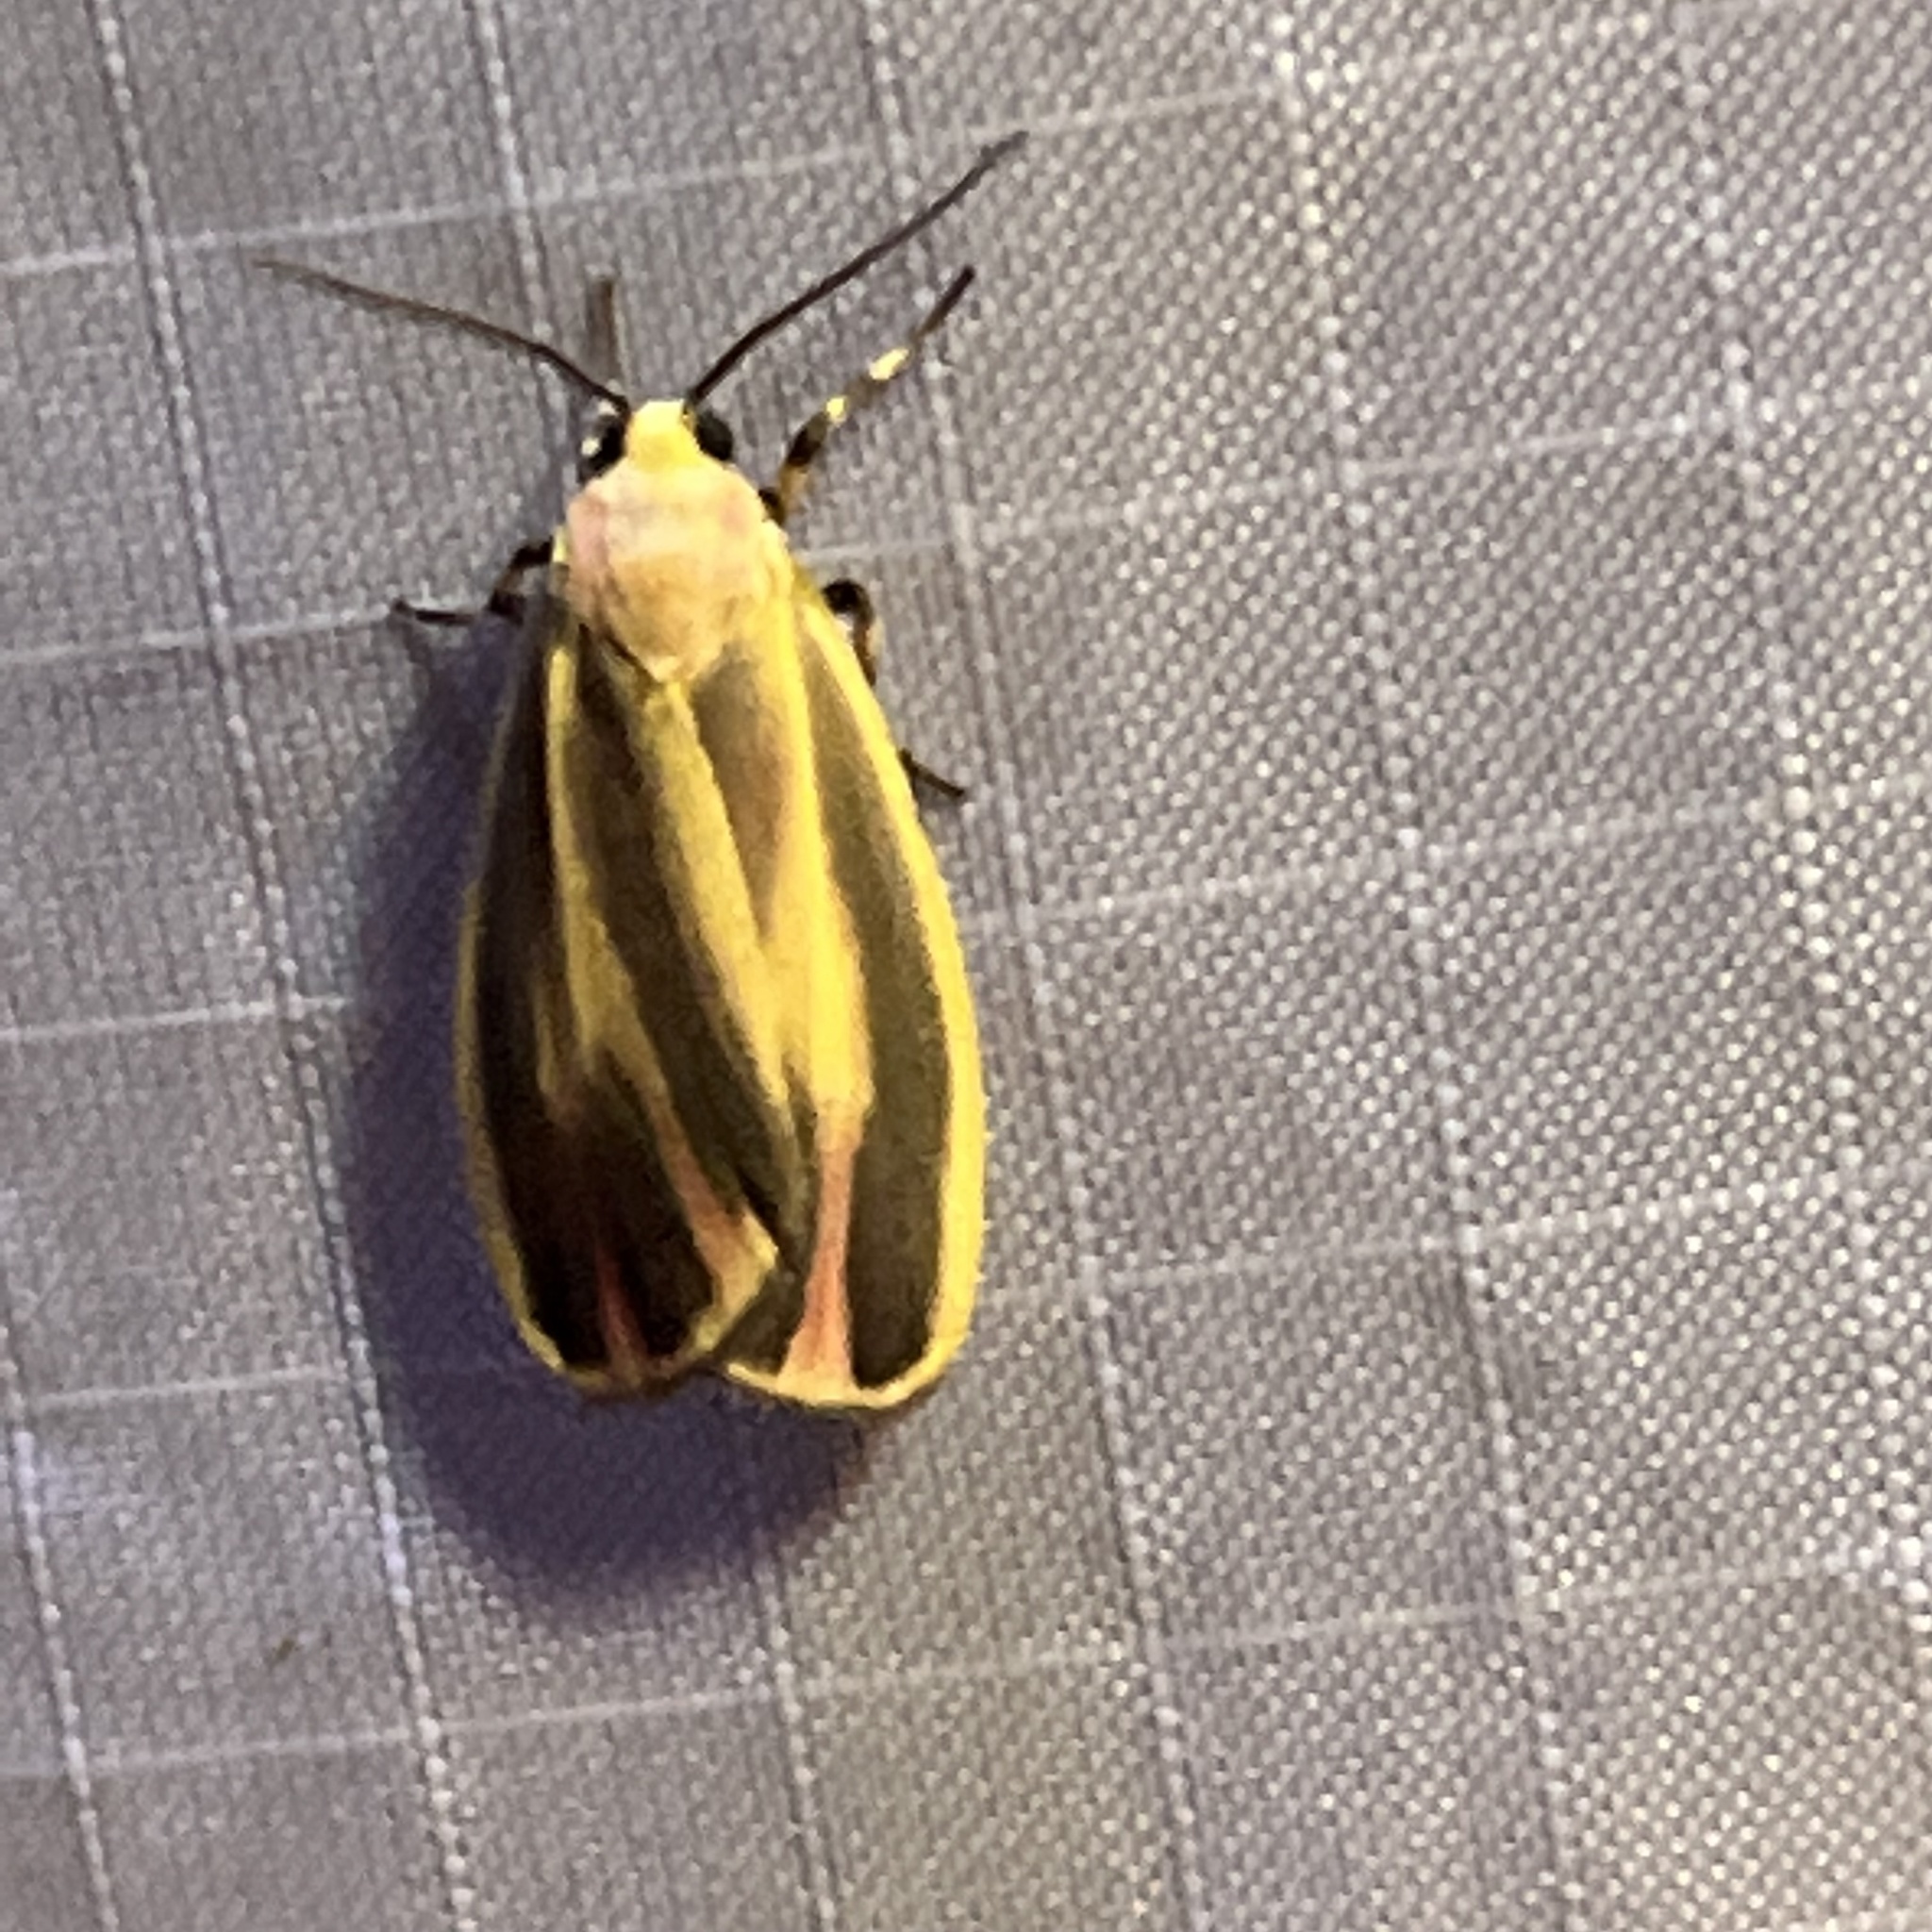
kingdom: Animalia
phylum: Arthropoda
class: Insecta
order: Lepidoptera
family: Erebidae
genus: Hypoprepia
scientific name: Hypoprepia fucosa
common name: Painted lichen moth
